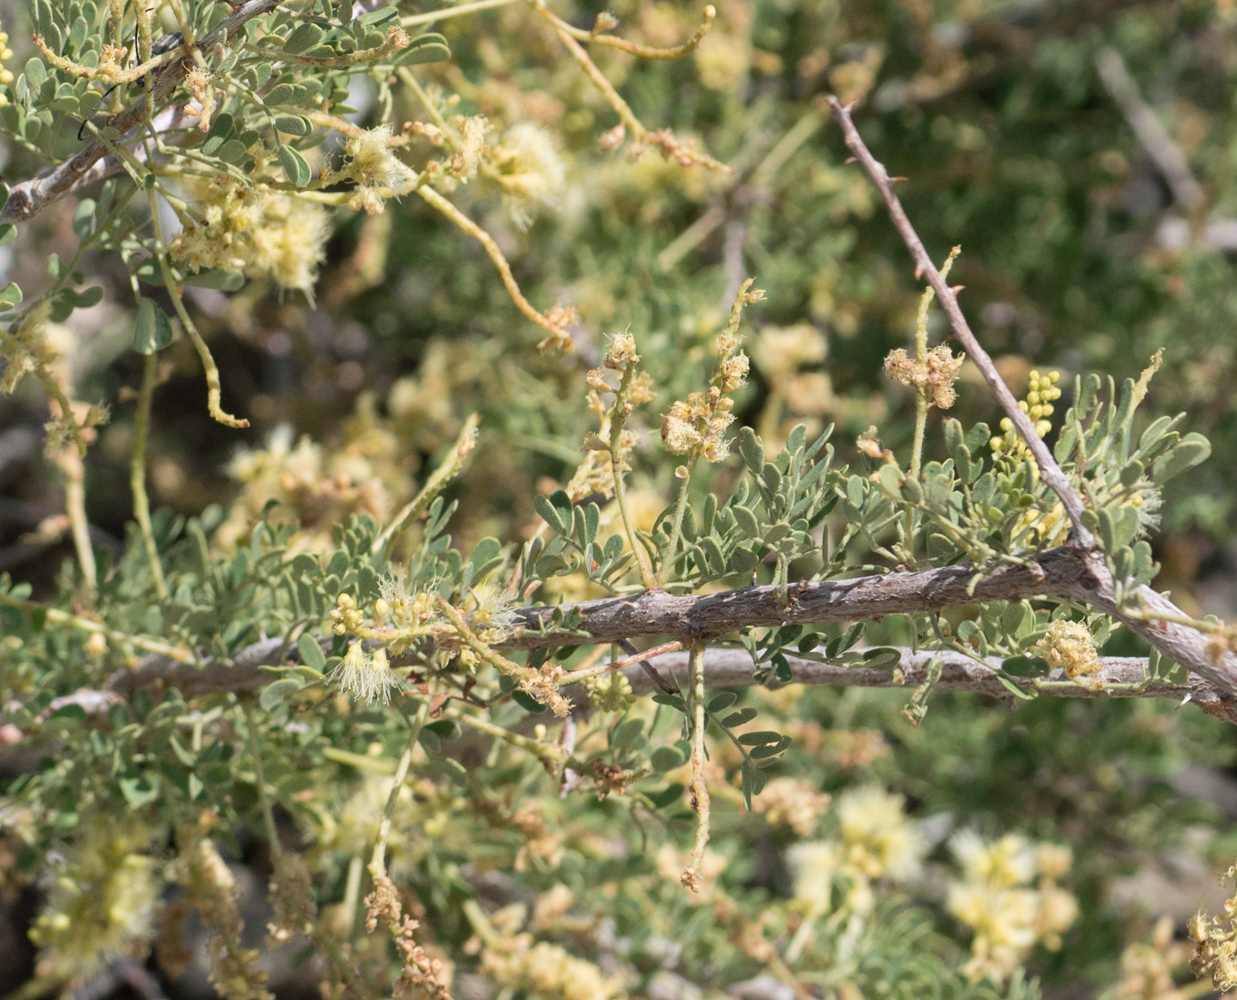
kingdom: Plantae
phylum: Tracheophyta
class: Magnoliopsida
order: Fabales
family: Fabaceae
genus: Senegalia
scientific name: Senegalia greggii
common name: Texas-mimosa
